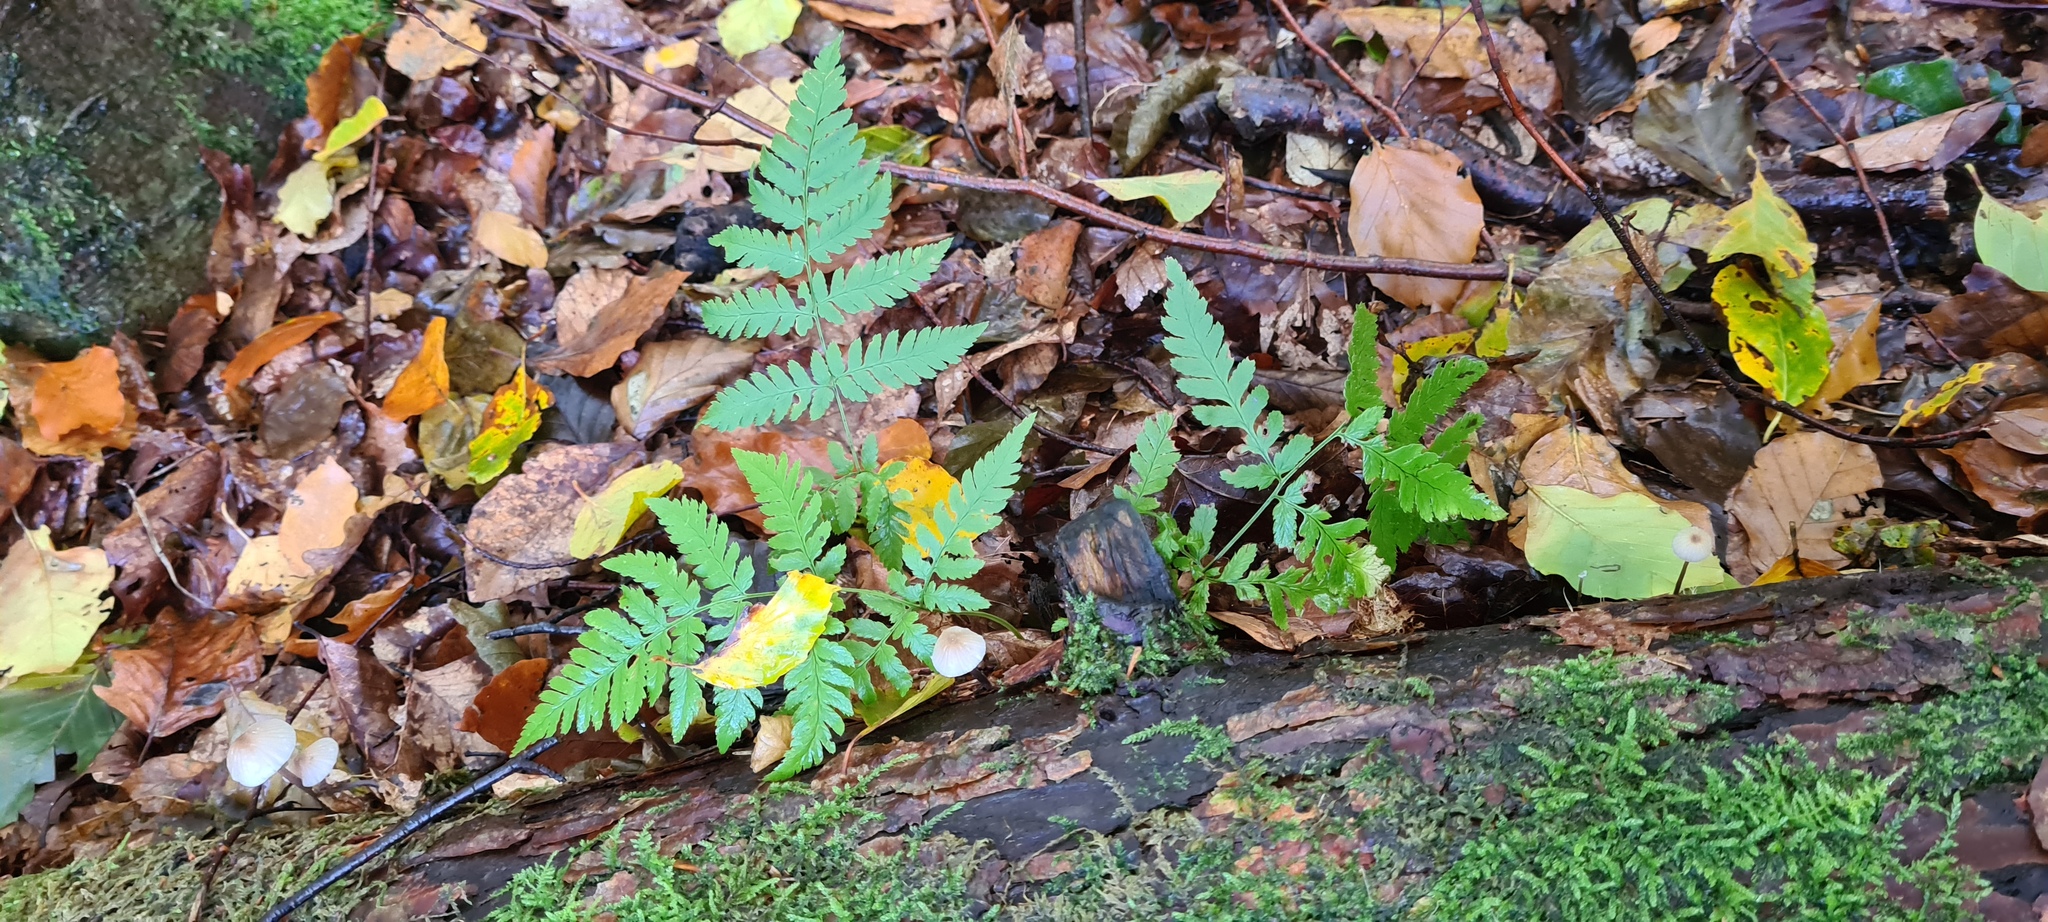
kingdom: Plantae
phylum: Tracheophyta
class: Polypodiopsida
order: Polypodiales
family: Dryopteridaceae
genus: Dryopteris
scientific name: Dryopteris carthusiana
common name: Narrow buckler-fern
